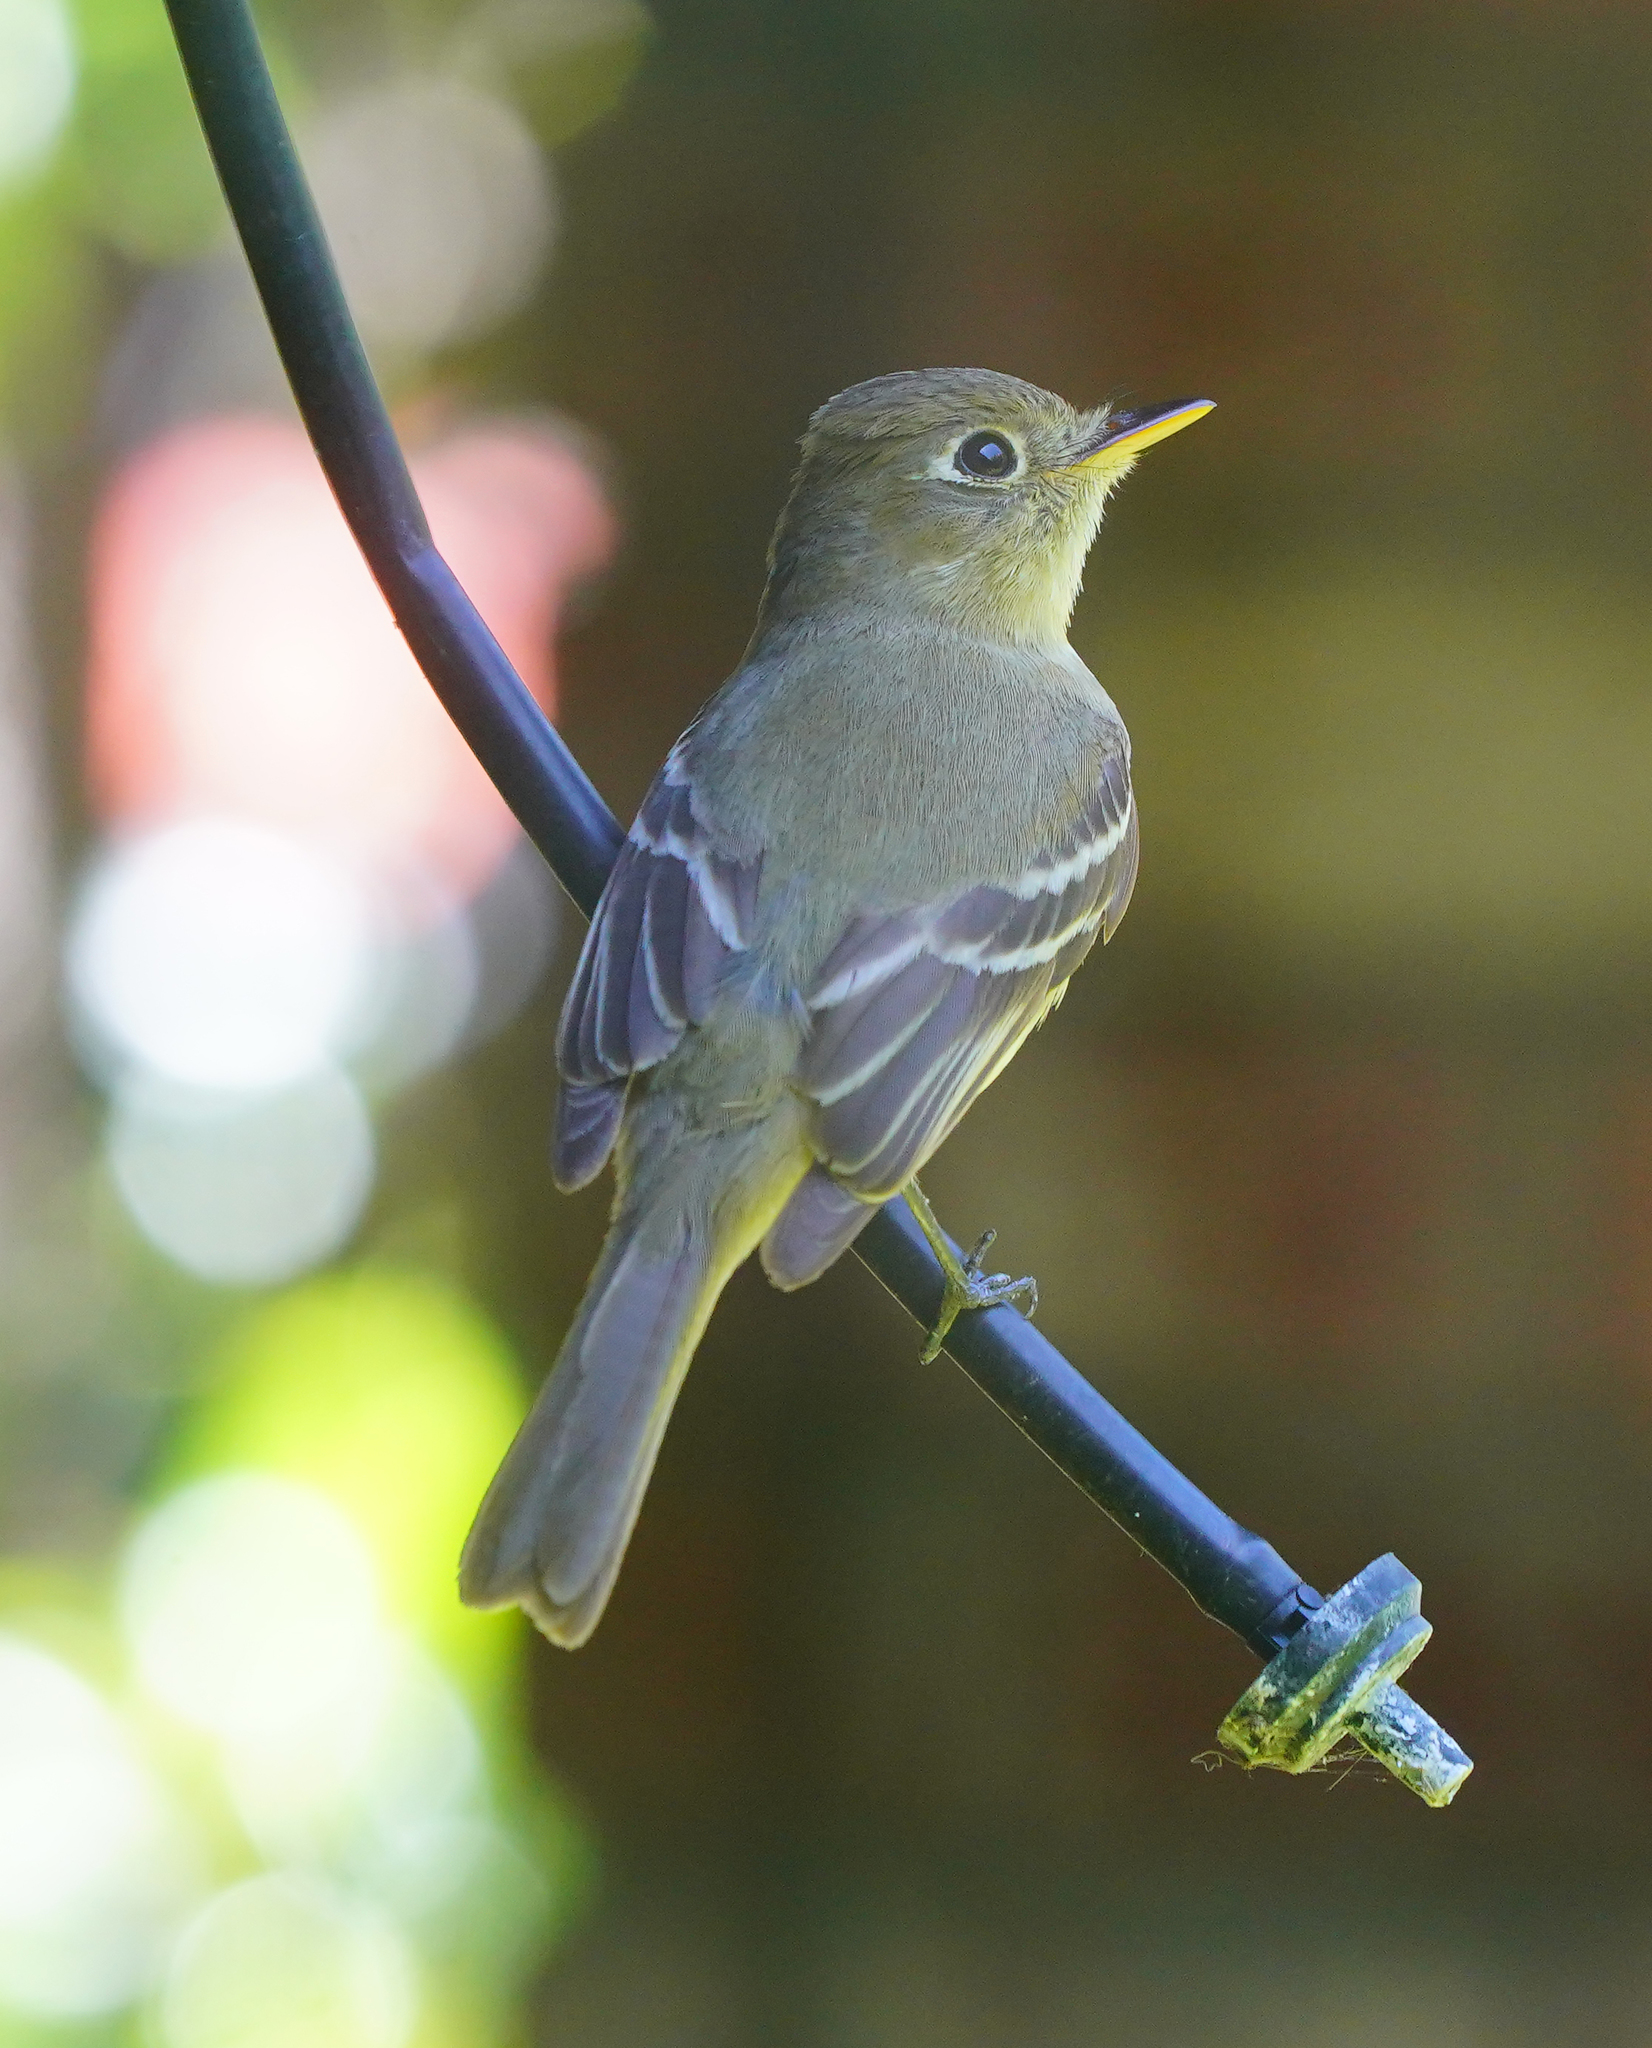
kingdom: Animalia
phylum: Chordata
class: Aves
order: Passeriformes
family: Tyrannidae
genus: Empidonax
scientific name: Empidonax difficilis
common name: Pacific-slope flycatcher
